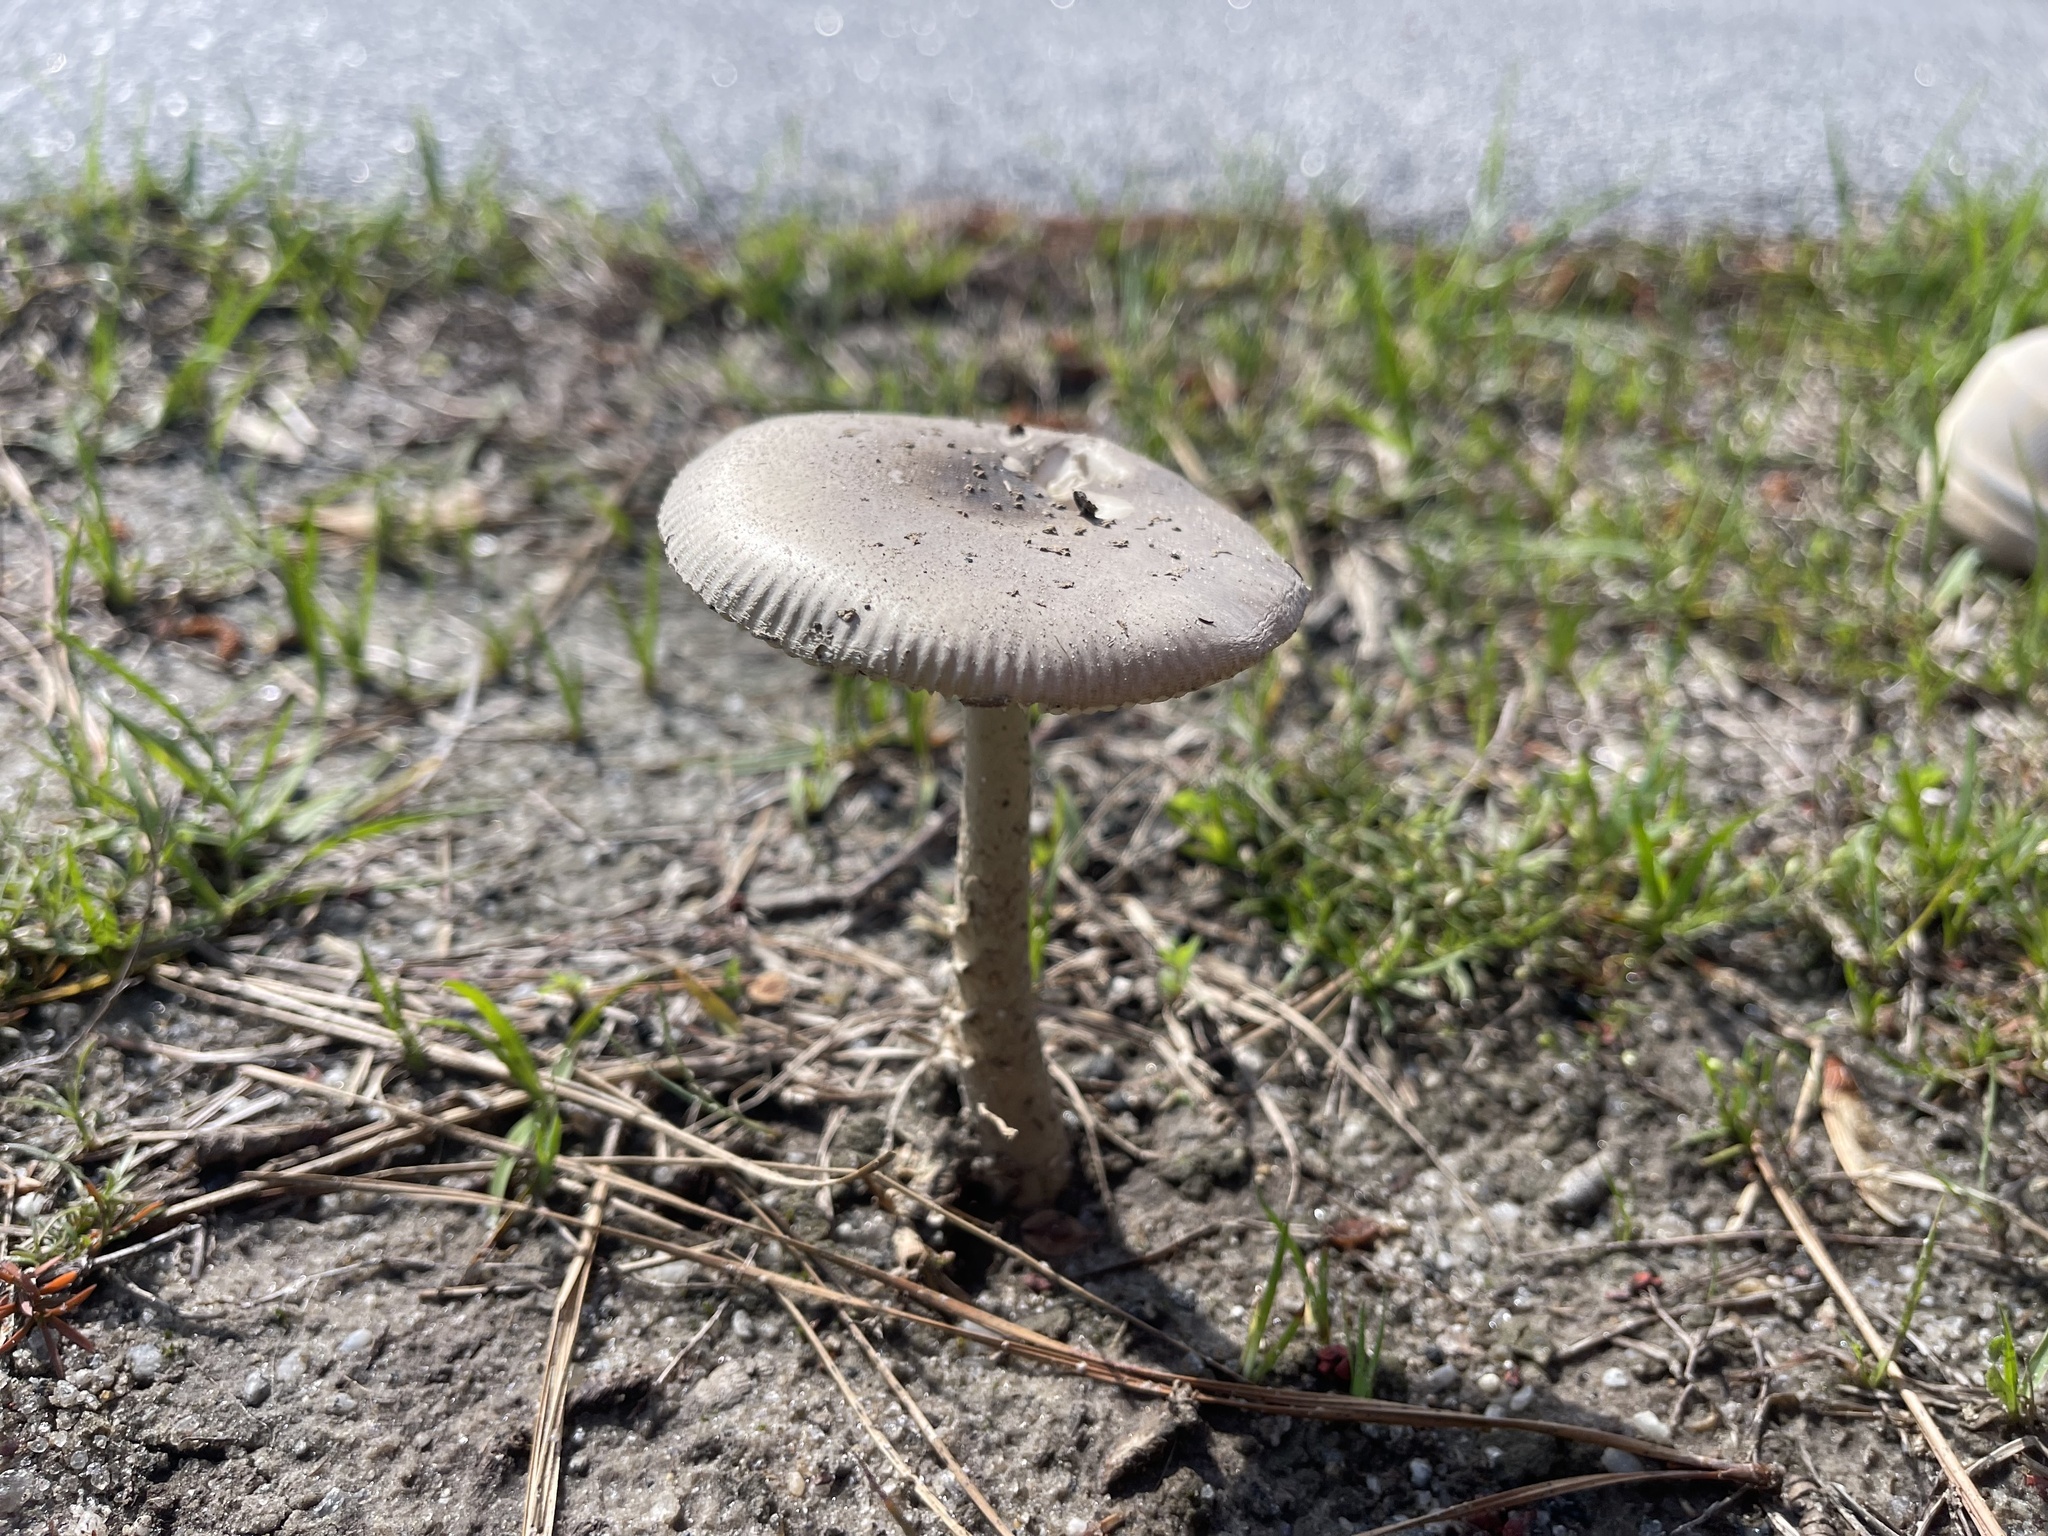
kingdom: Fungi
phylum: Basidiomycota
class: Agaricomycetes
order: Agaricales
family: Amanitaceae
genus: Amanita
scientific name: Amanita rhacopus
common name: Shaggy legged ringless amanita
